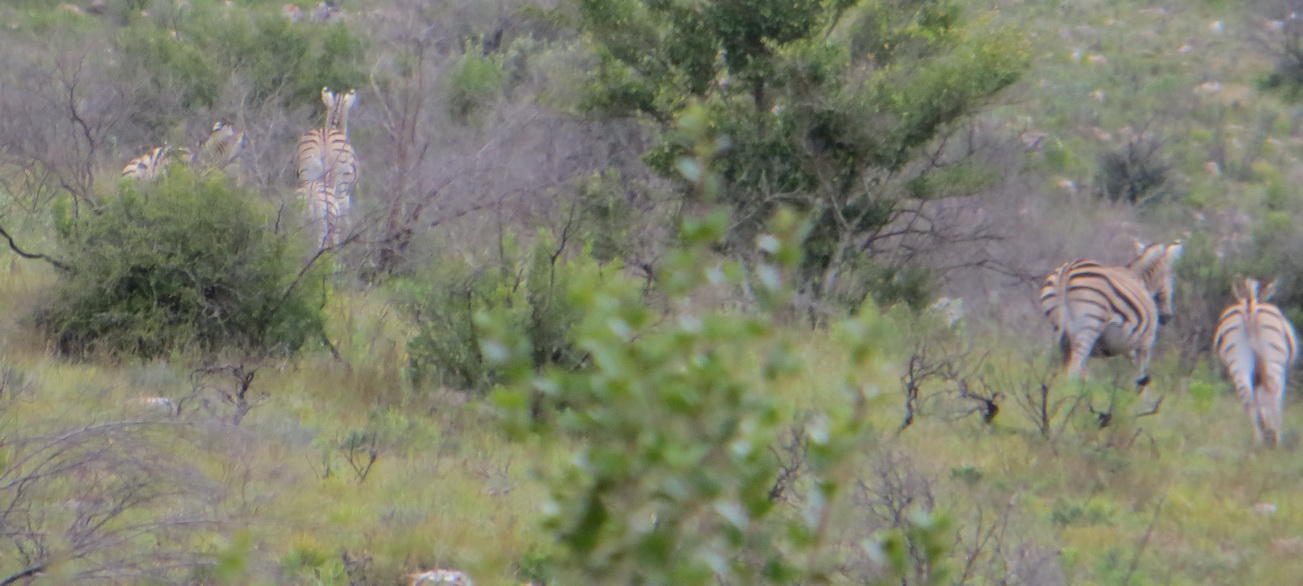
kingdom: Animalia
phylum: Chordata
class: Mammalia
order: Perissodactyla
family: Equidae
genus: Equus
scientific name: Equus quagga
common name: Plains zebra
